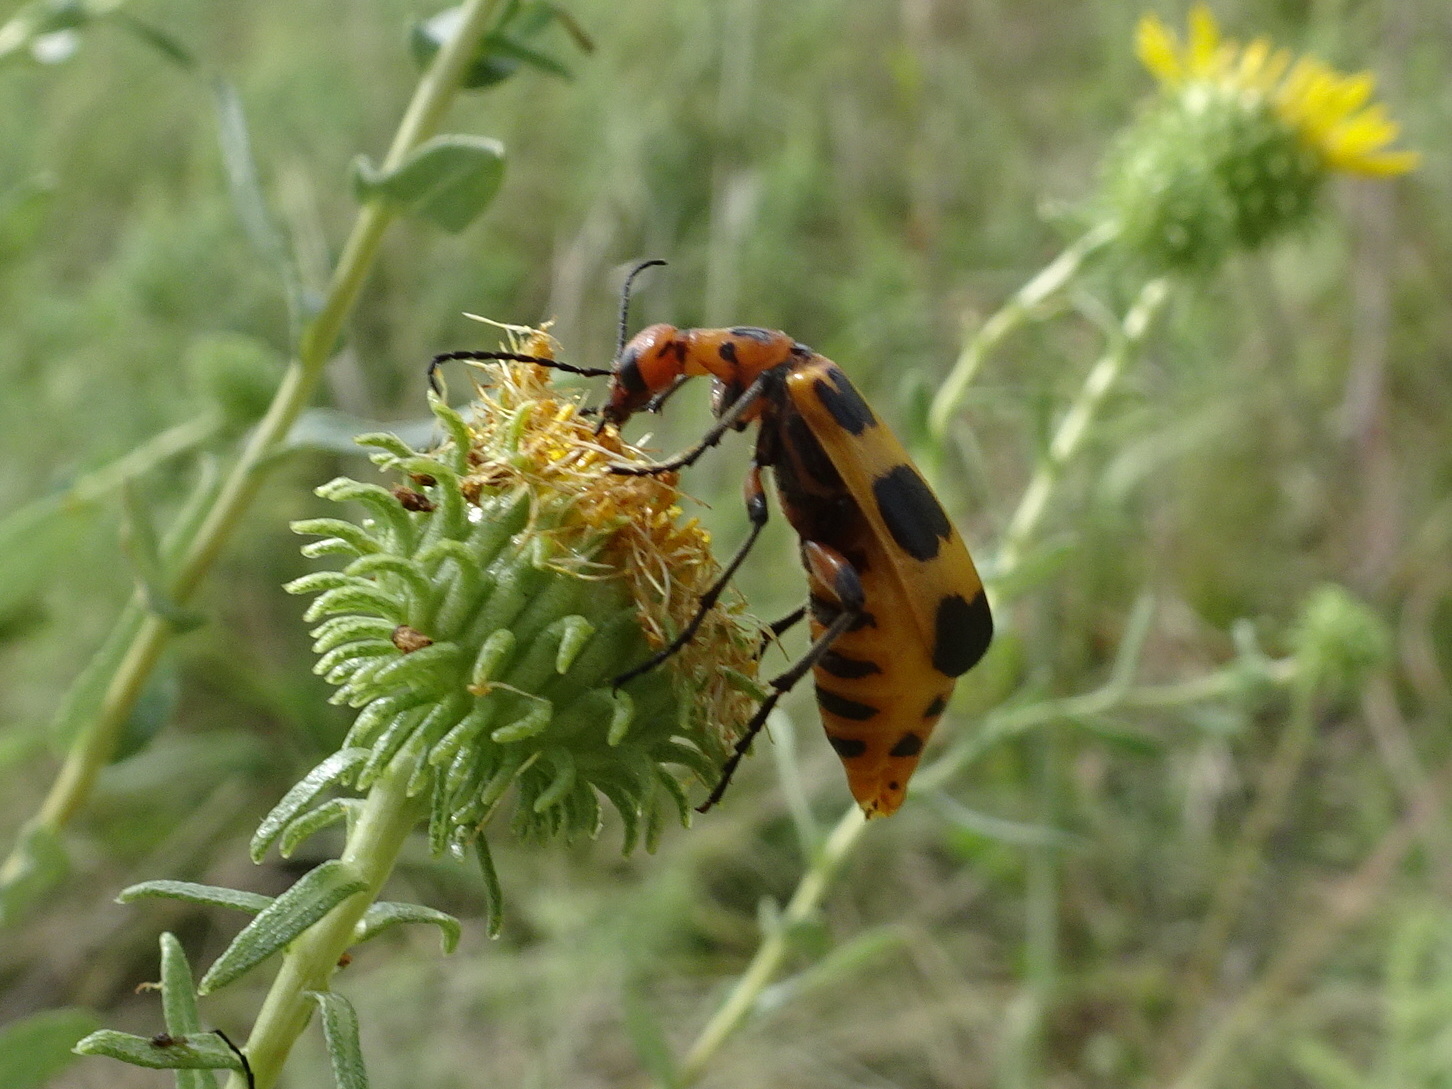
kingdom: Animalia
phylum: Arthropoda
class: Insecta
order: Coleoptera
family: Meloidae
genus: Pyrota
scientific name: Pyrota palpalis
